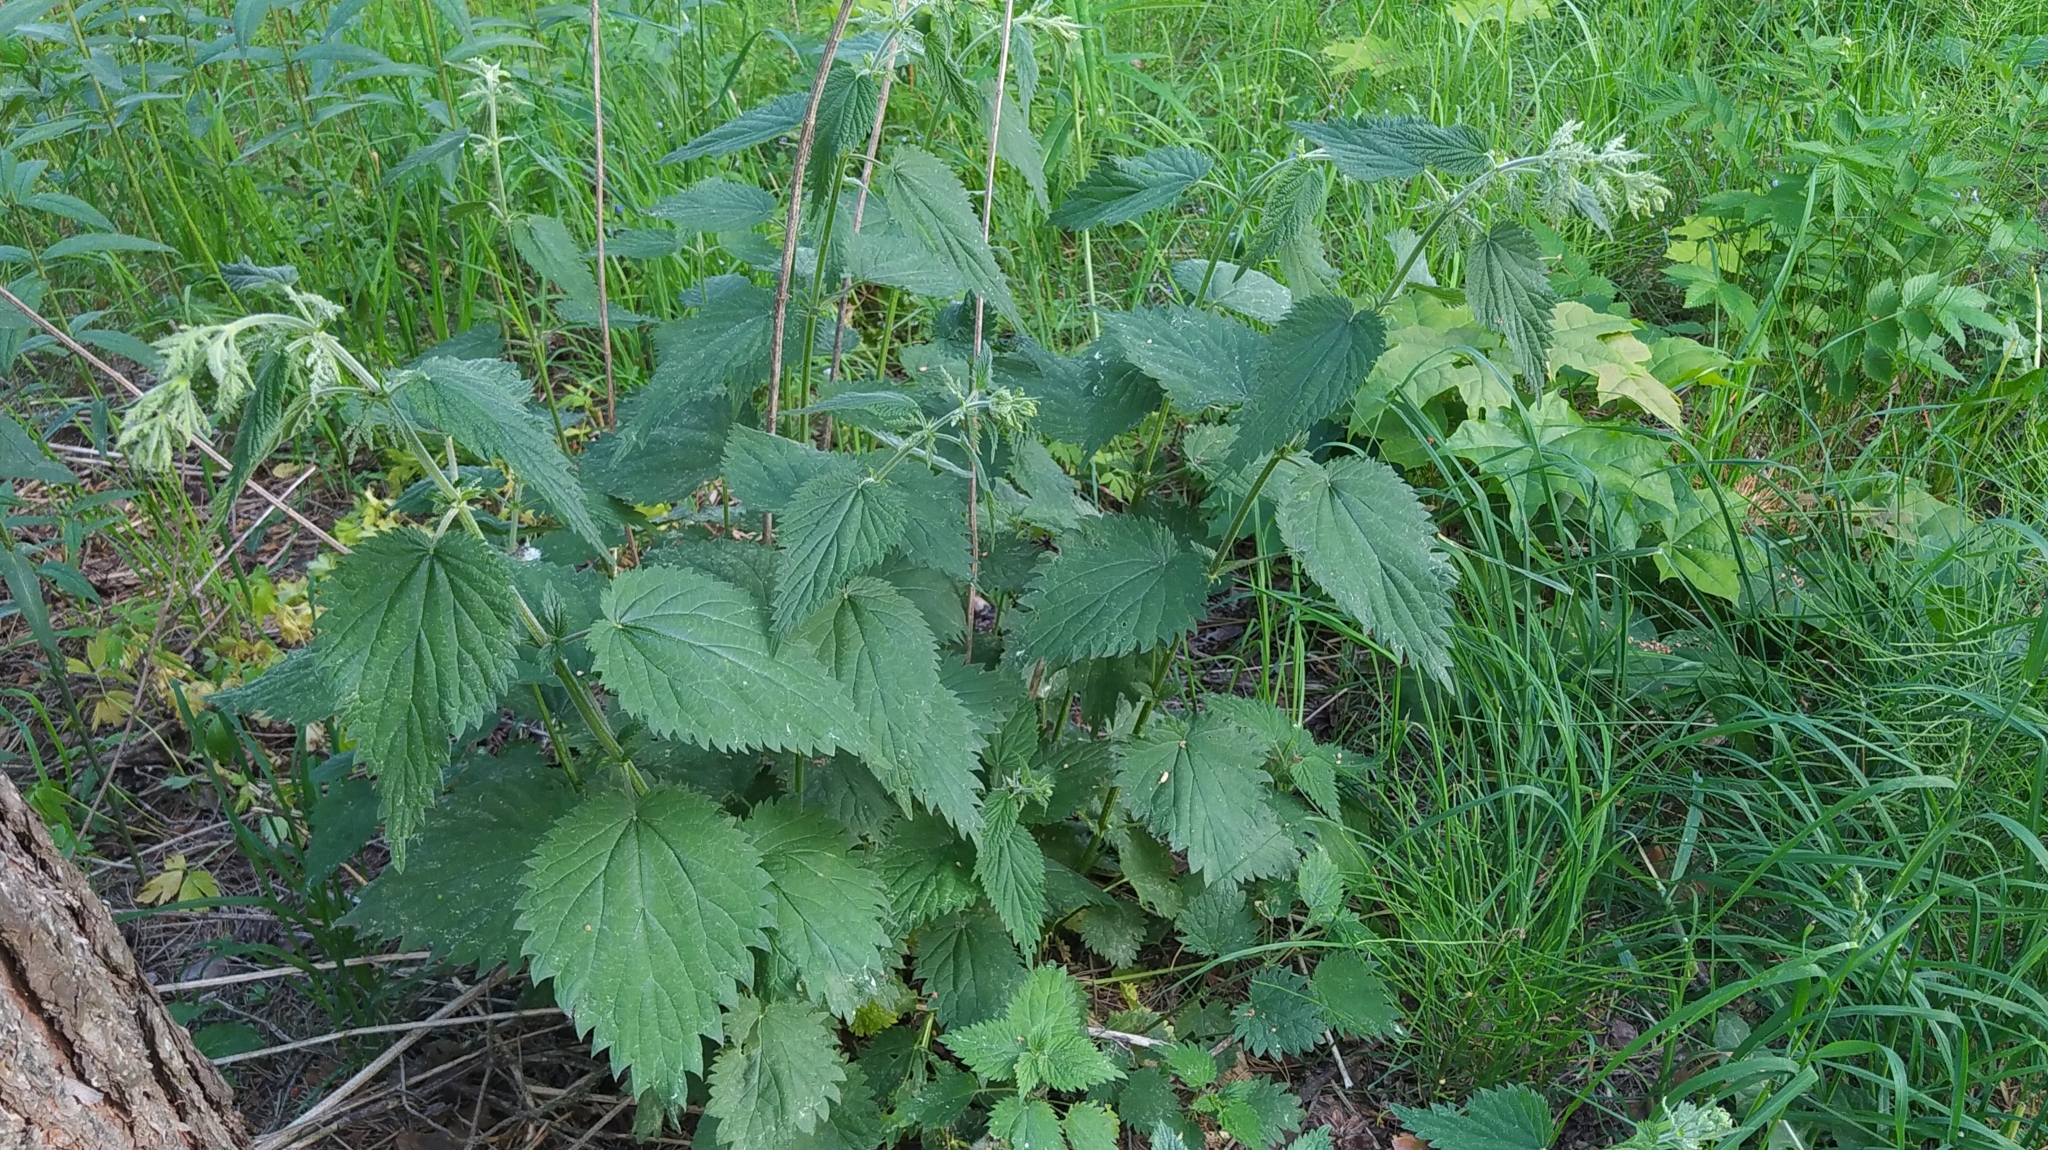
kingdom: Plantae
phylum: Tracheophyta
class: Magnoliopsida
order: Rosales
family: Urticaceae
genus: Urtica
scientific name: Urtica dioica
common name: Common nettle
